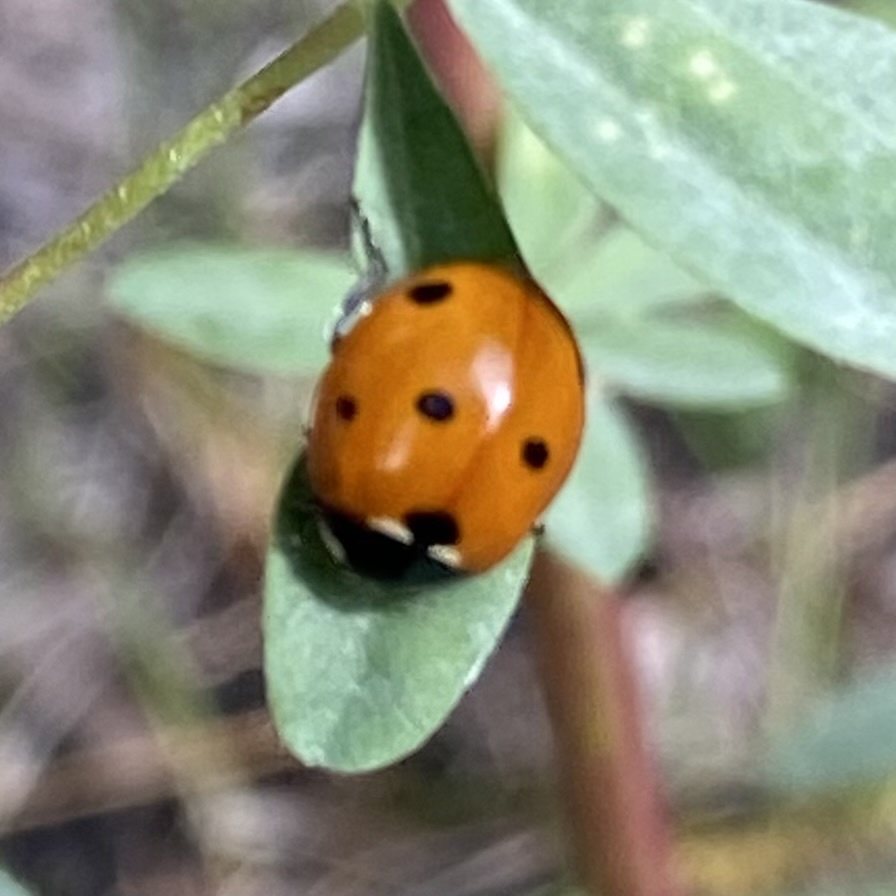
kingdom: Animalia
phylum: Arthropoda
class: Insecta
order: Coleoptera
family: Coccinellidae
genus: Coccinella
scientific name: Coccinella septempunctata
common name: Sevenspotted lady beetle
